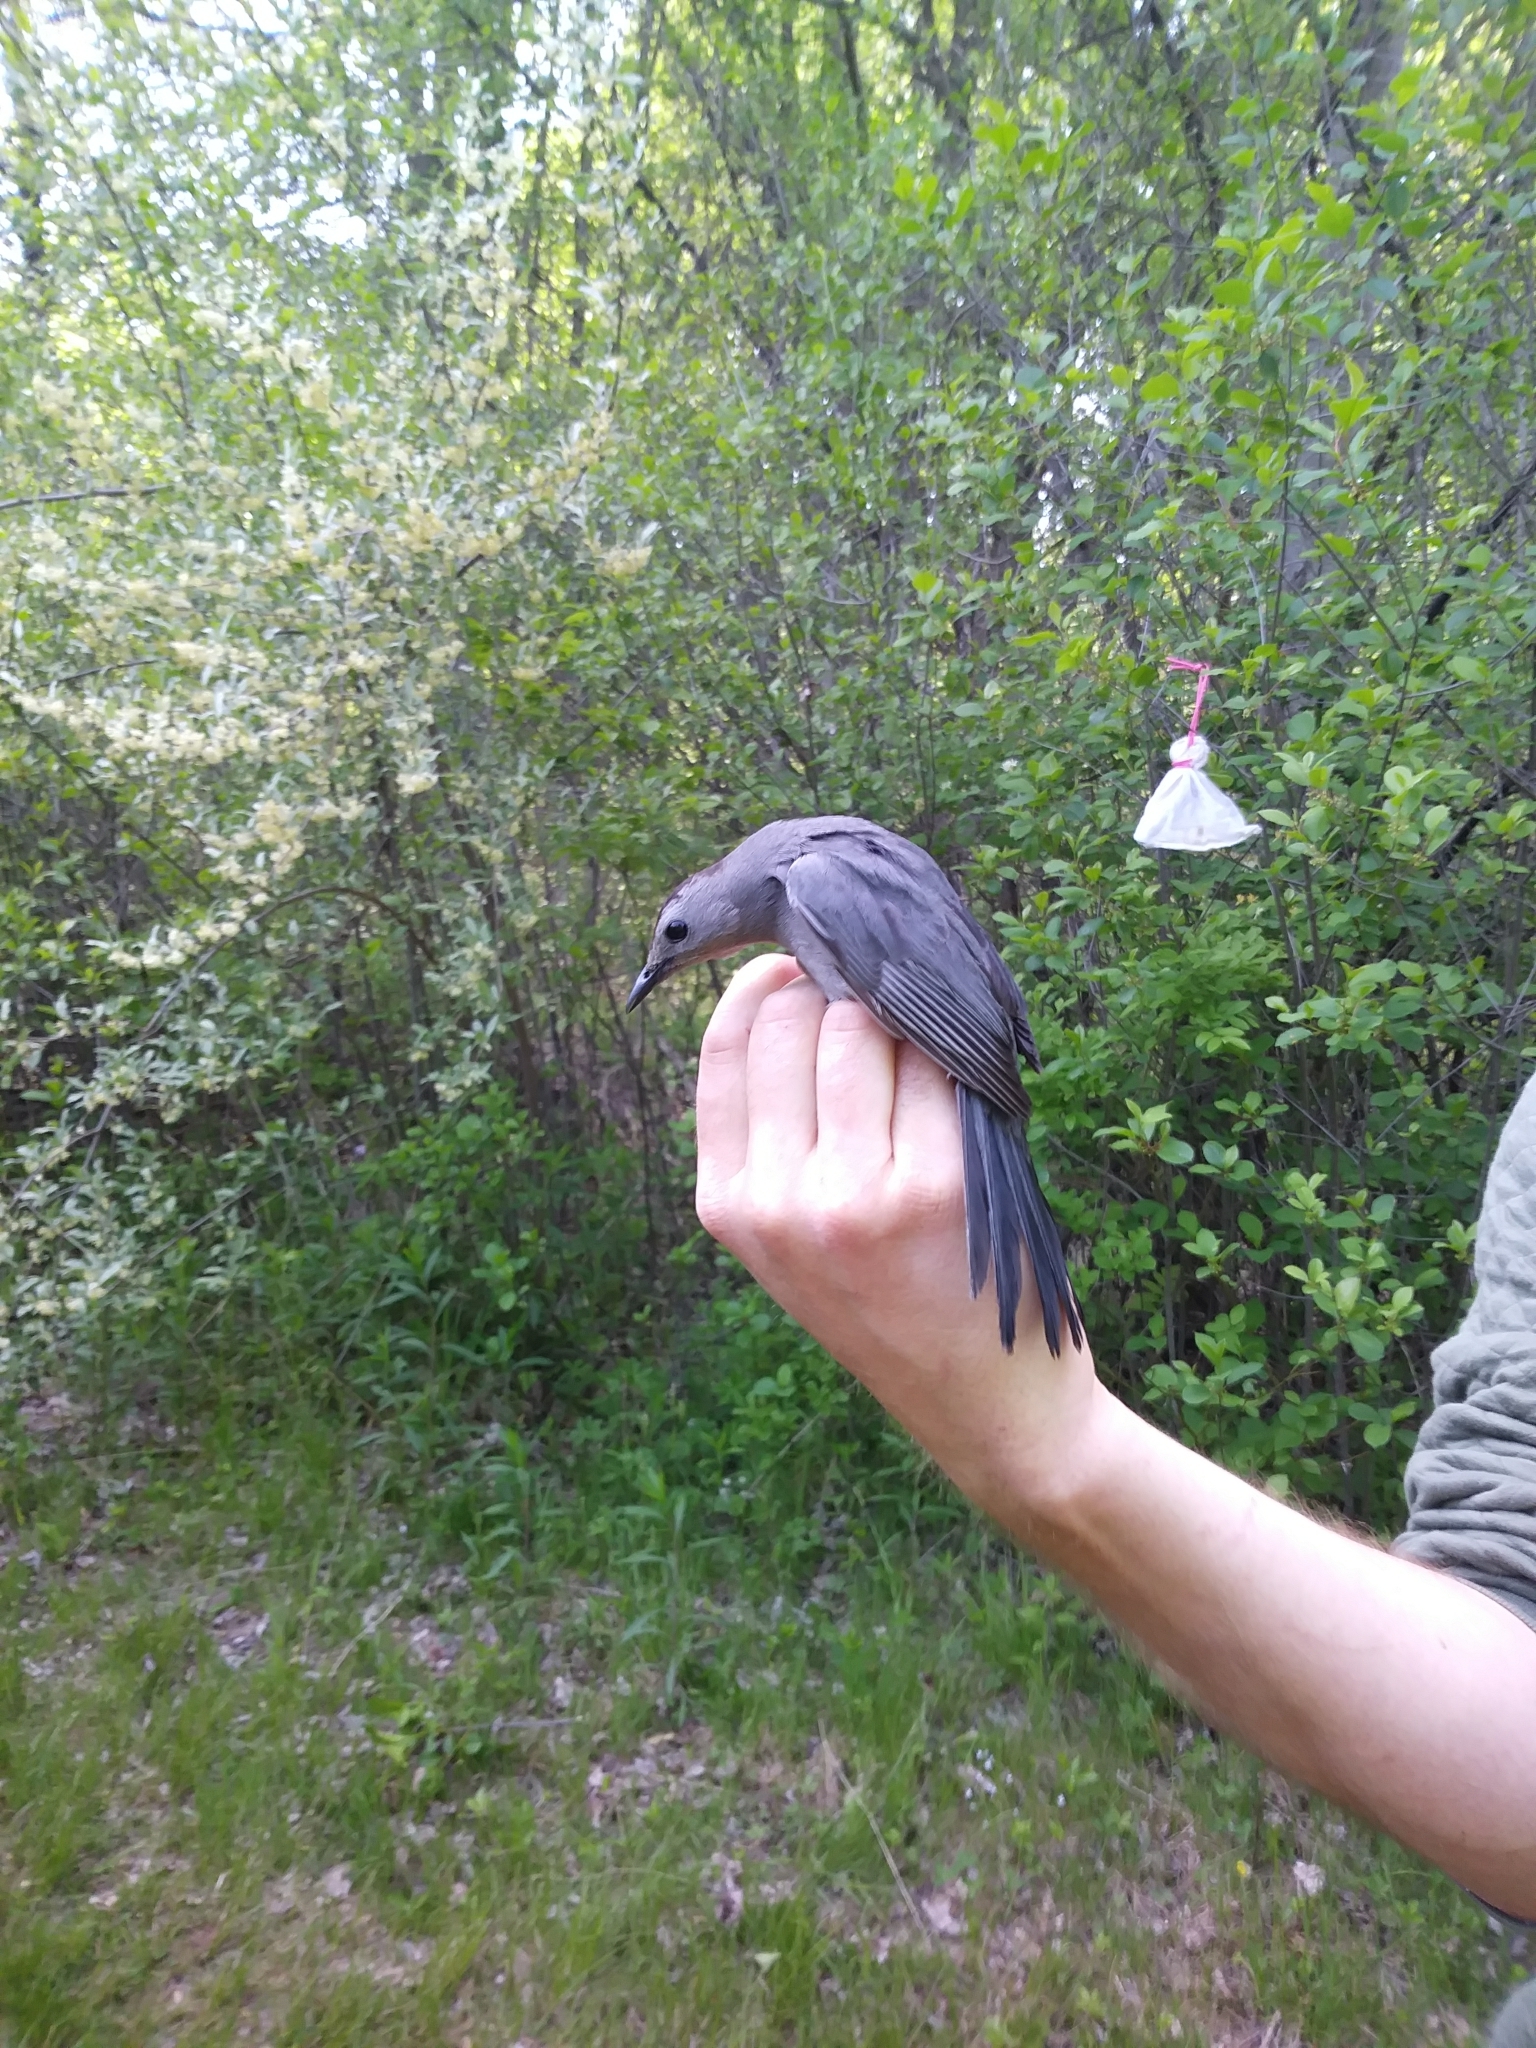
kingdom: Animalia
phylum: Chordata
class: Aves
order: Passeriformes
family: Mimidae
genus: Dumetella
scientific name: Dumetella carolinensis
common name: Gray catbird
